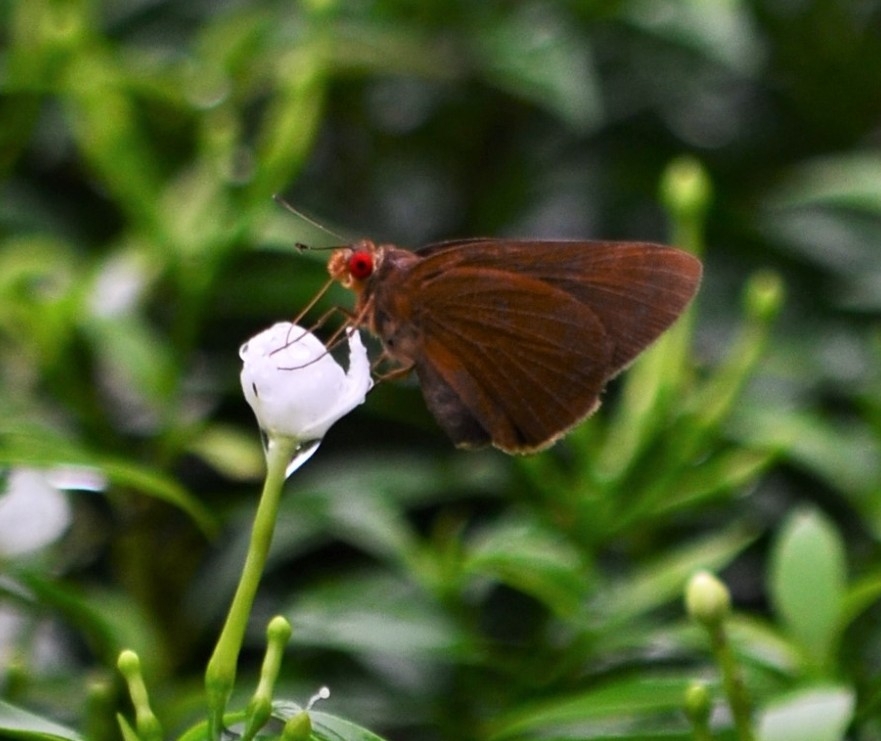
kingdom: Animalia
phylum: Arthropoda
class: Insecta
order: Lepidoptera
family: Hesperiidae
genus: Matapa
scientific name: Matapa aria
